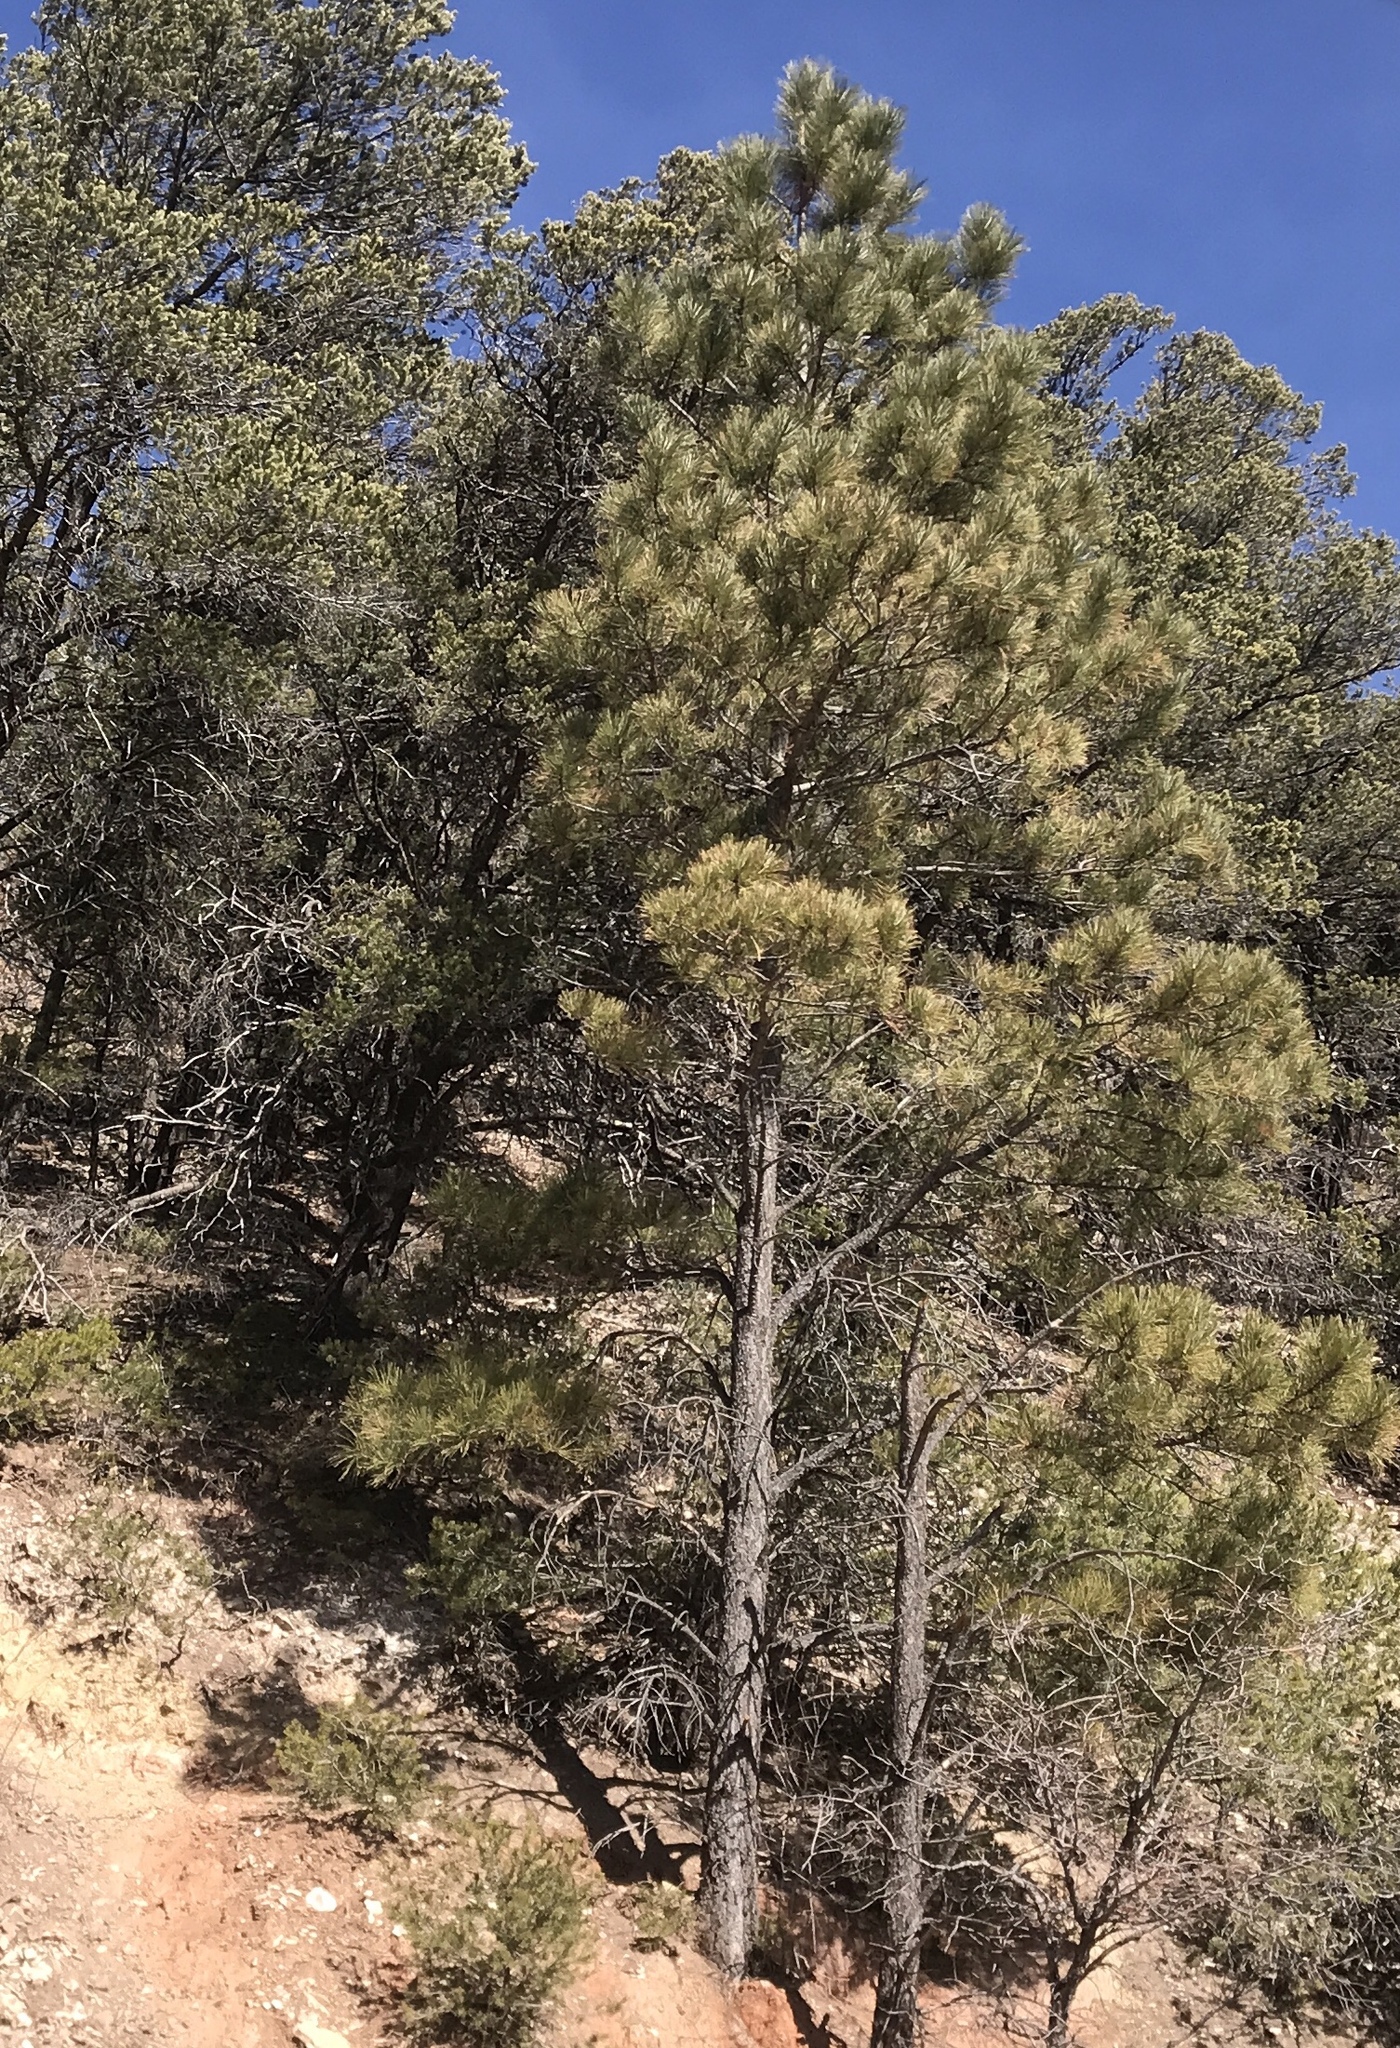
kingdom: Plantae
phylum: Tracheophyta
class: Pinopsida
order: Pinales
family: Pinaceae
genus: Pinus
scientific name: Pinus ponderosa
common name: Western yellow-pine
